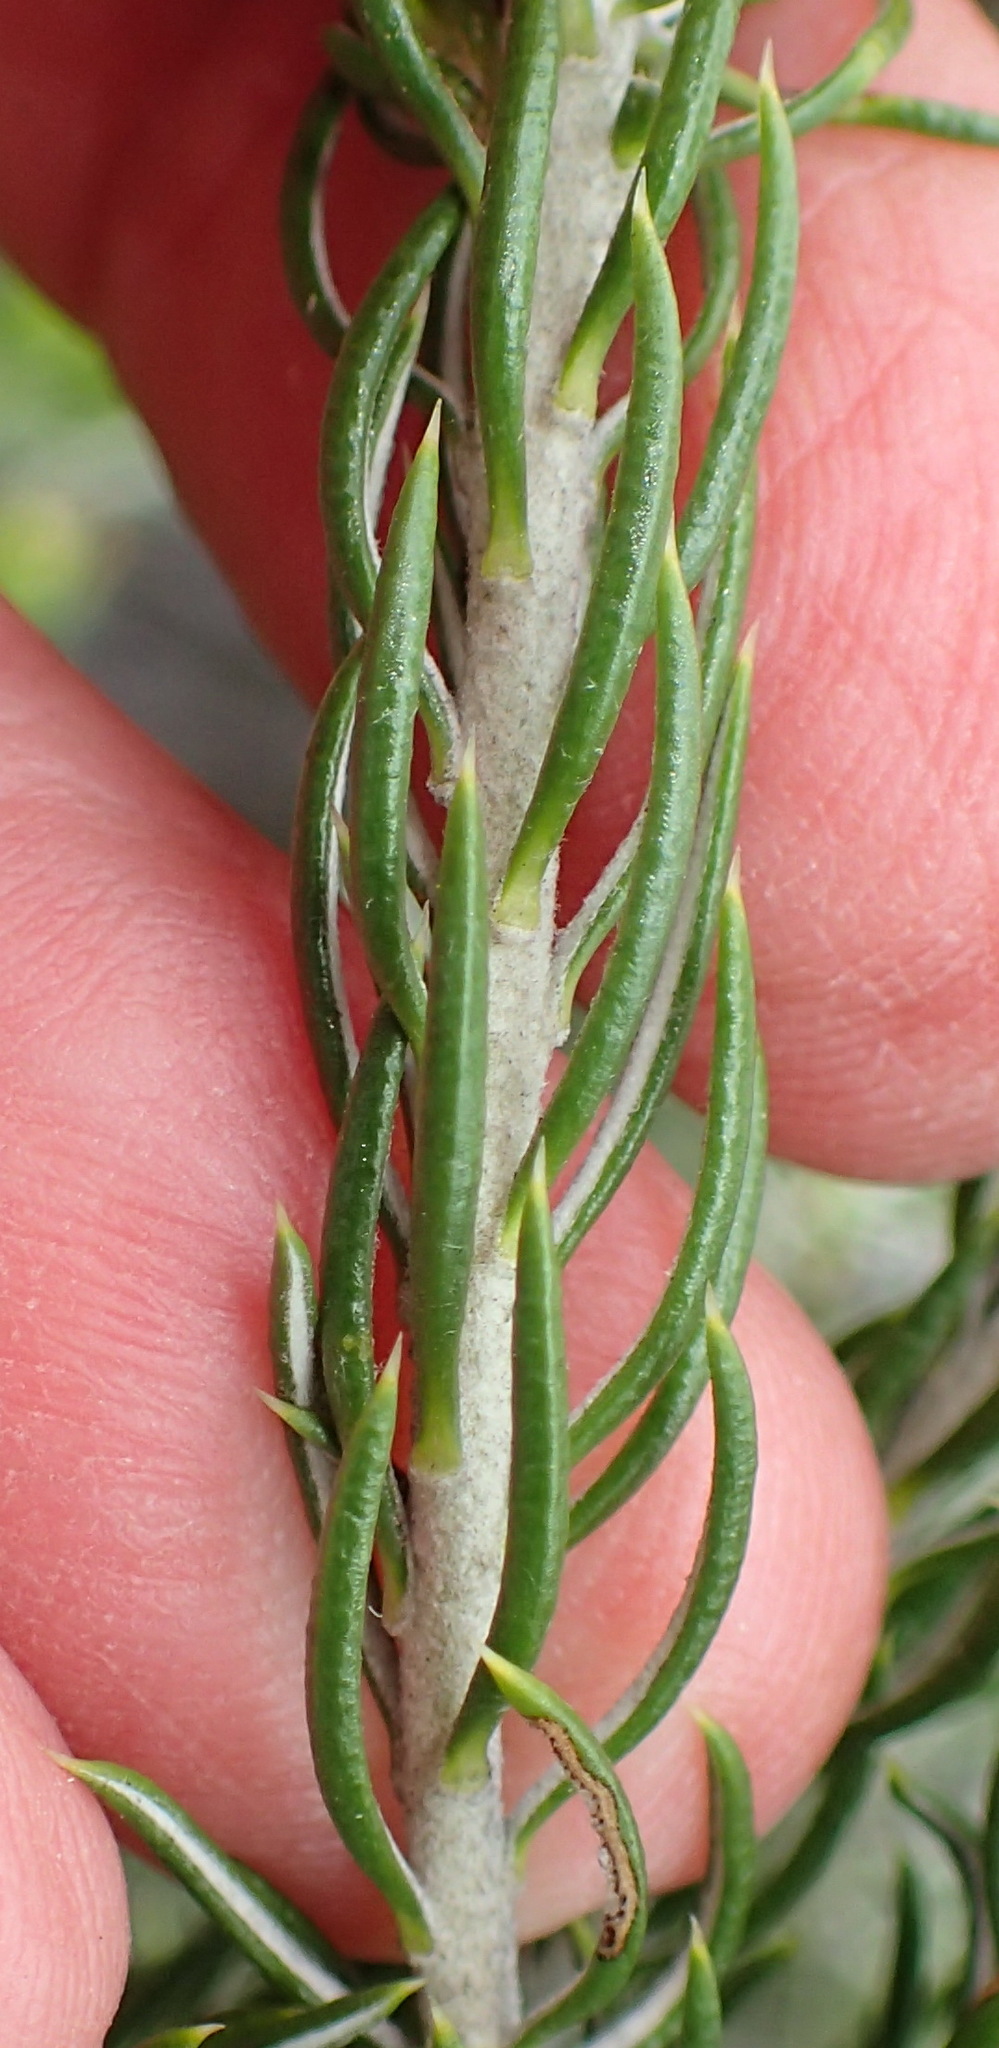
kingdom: Plantae
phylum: Tracheophyta
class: Magnoliopsida
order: Asterales
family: Asteraceae
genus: Metalasia
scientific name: Metalasia pallida
